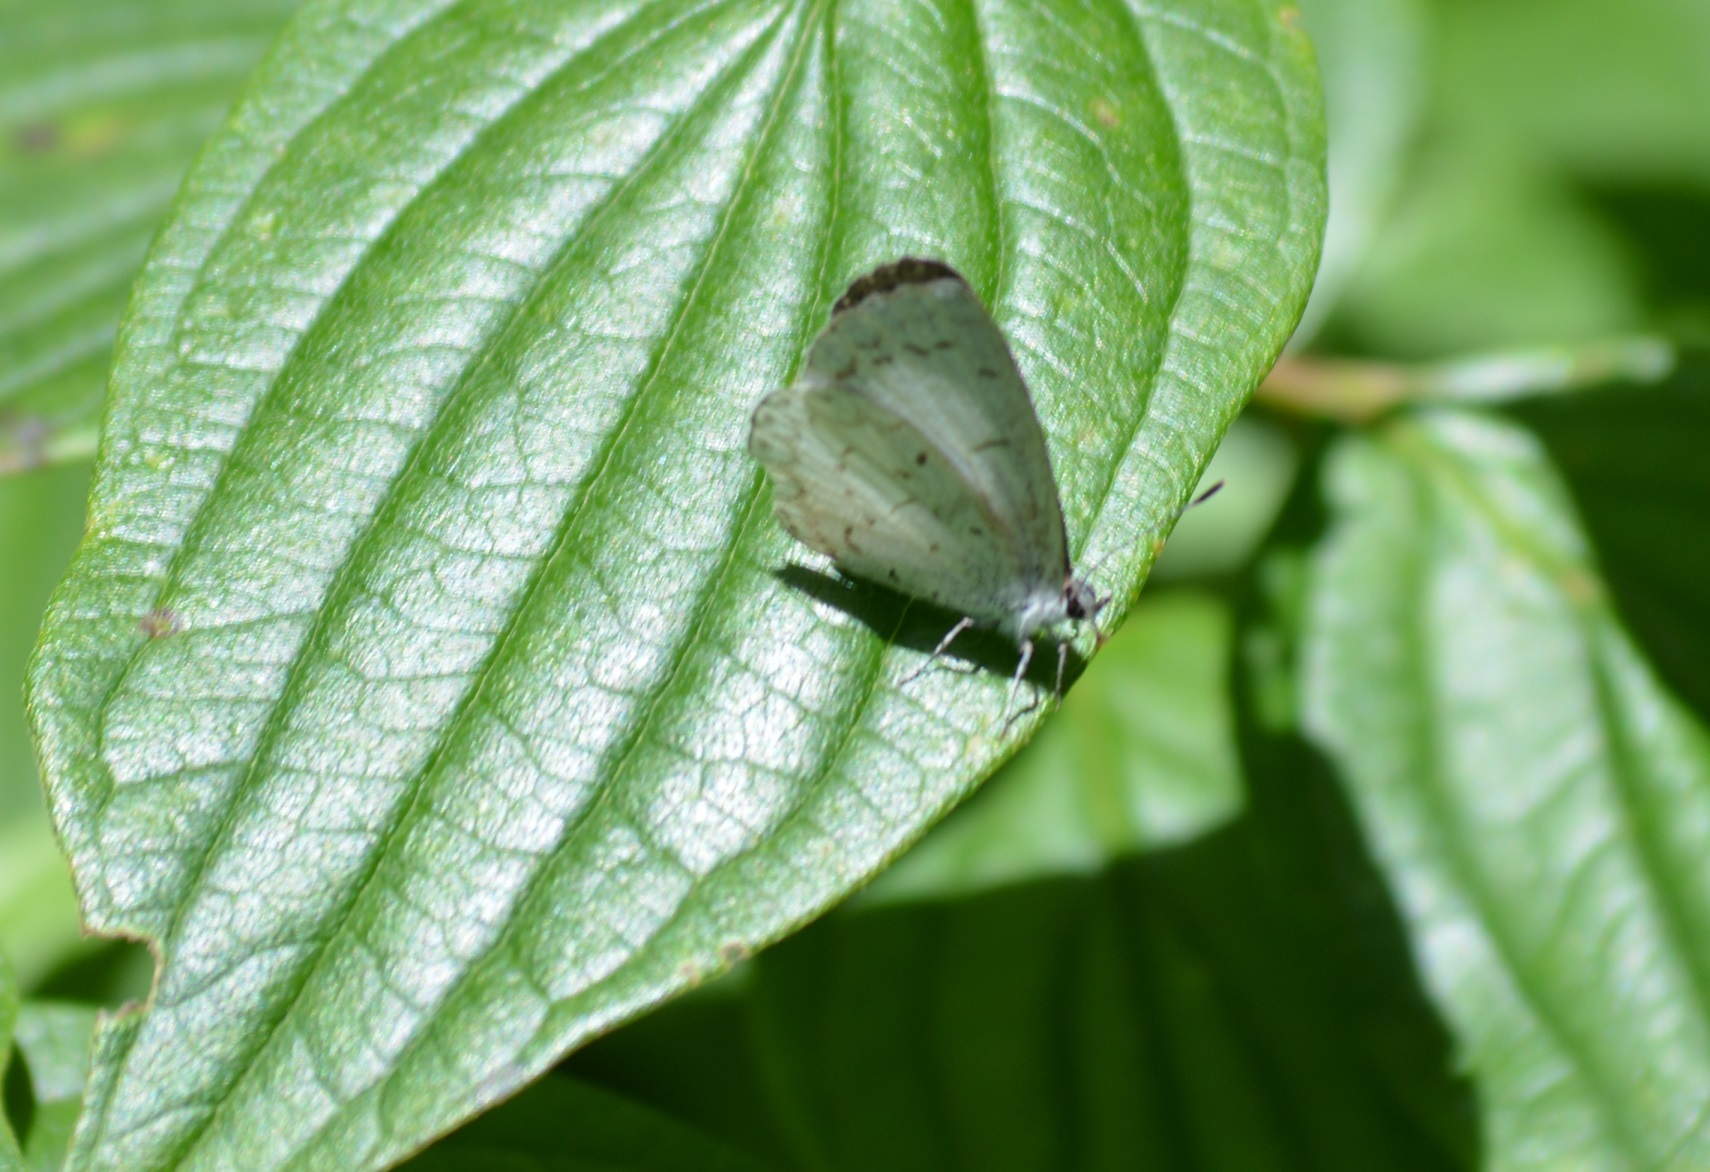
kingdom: Animalia
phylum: Arthropoda
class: Insecta
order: Lepidoptera
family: Lycaenidae
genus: Celastrina
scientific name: Celastrina ladon
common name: Spring azure
